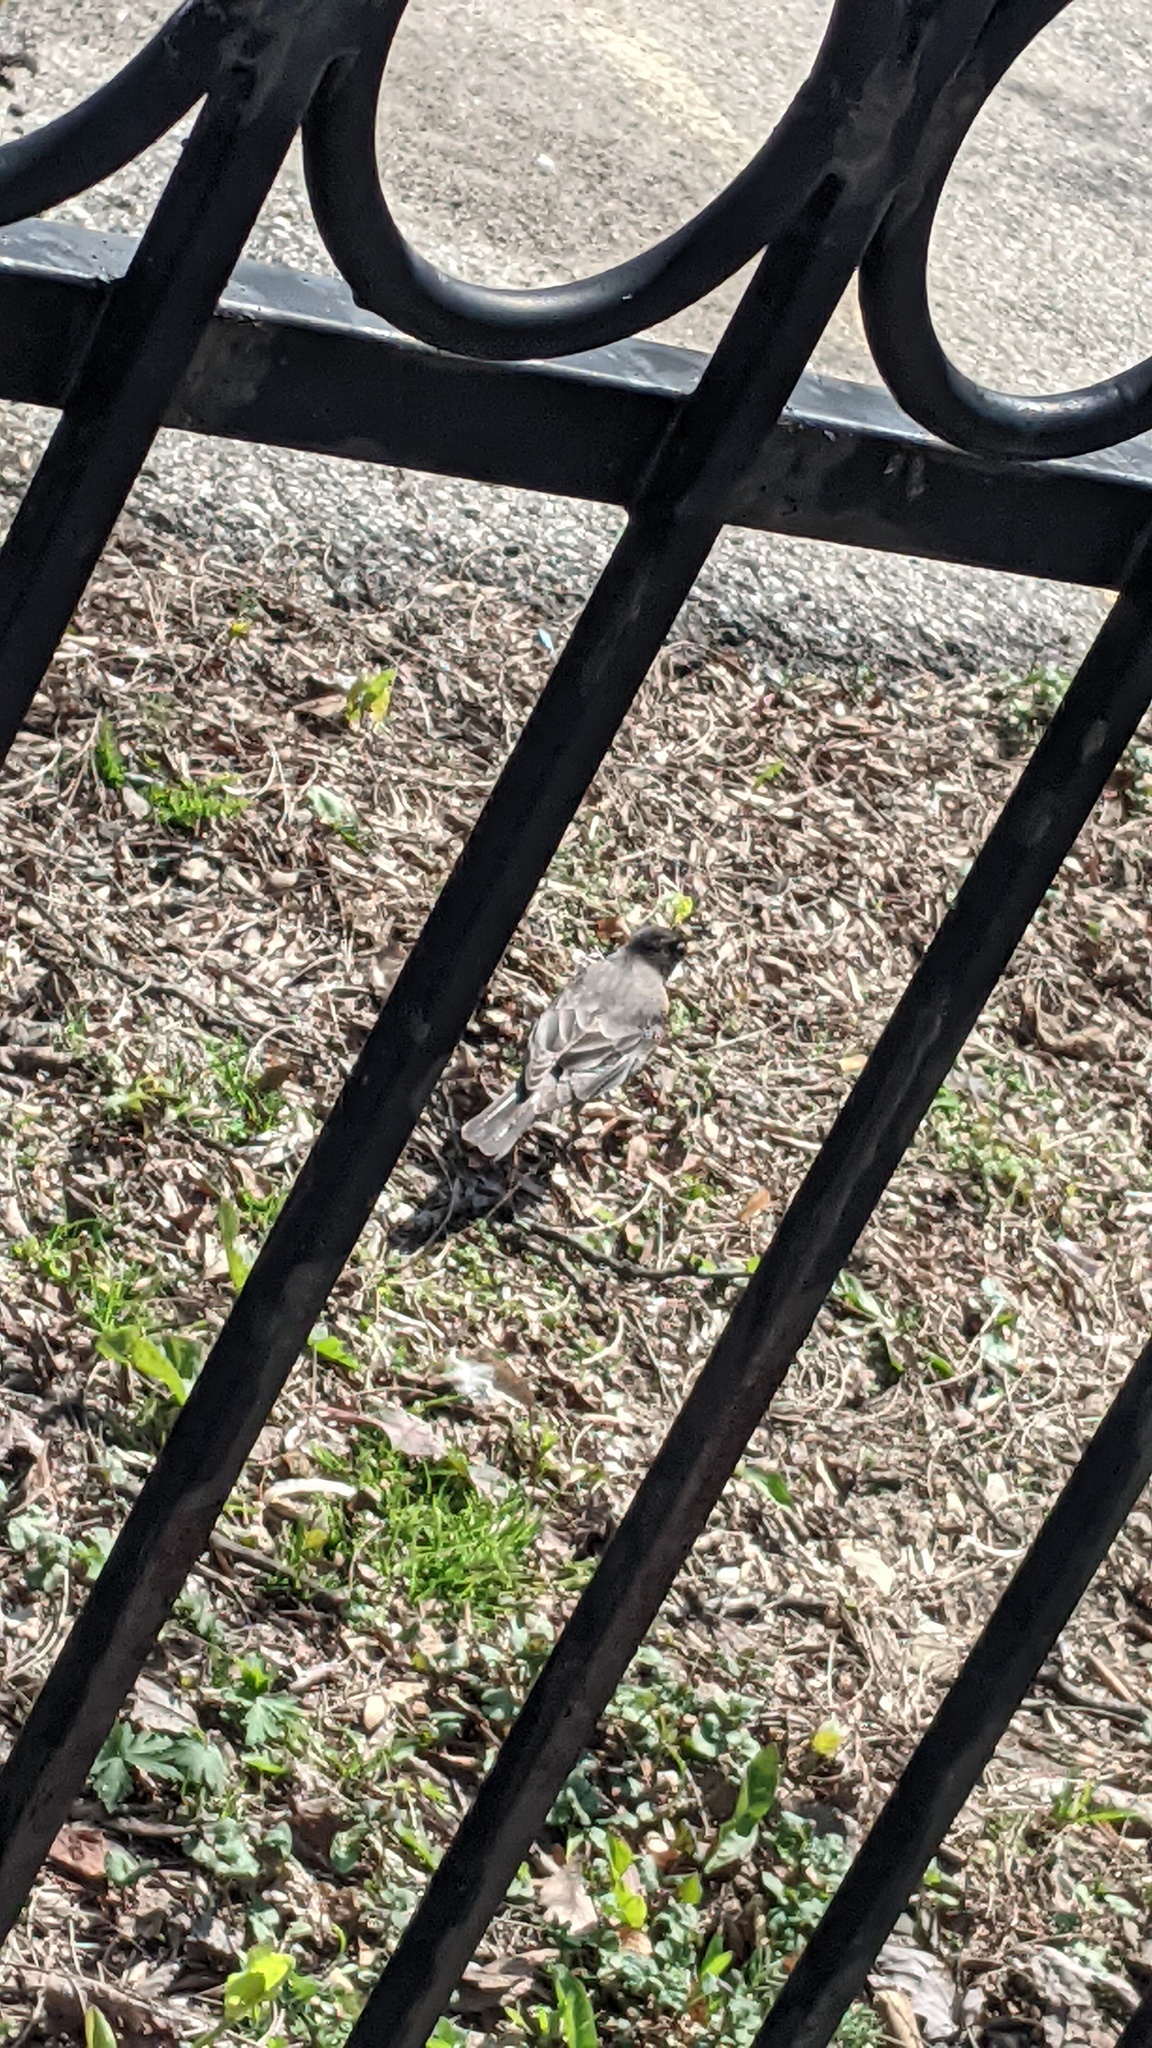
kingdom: Animalia
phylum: Chordata
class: Aves
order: Passeriformes
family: Turdidae
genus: Turdus
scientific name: Turdus migratorius
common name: American robin
